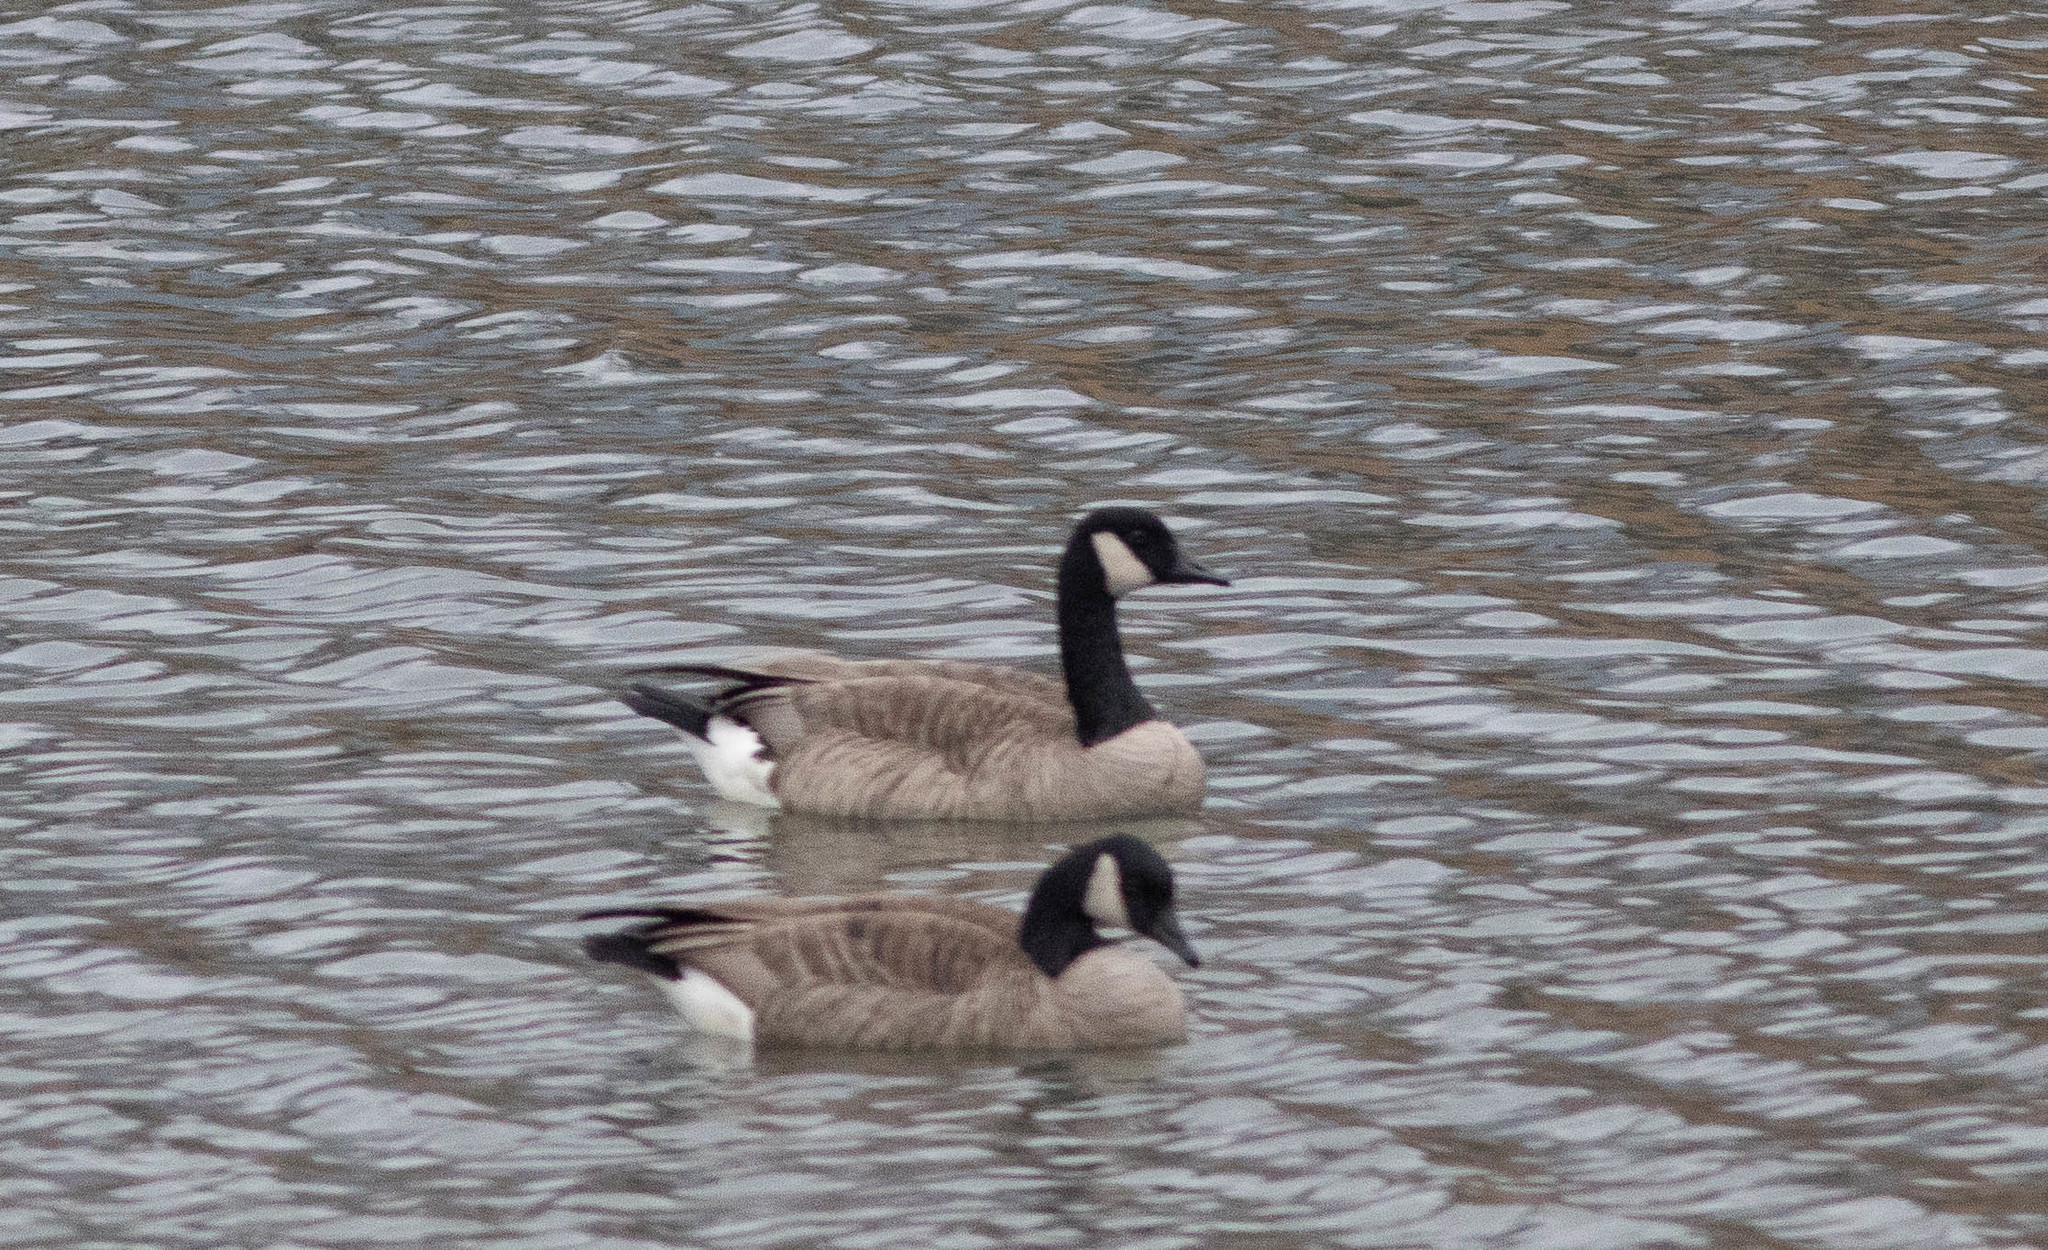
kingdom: Animalia
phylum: Chordata
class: Aves
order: Anseriformes
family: Anatidae
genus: Branta
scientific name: Branta canadensis
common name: Canada goose
